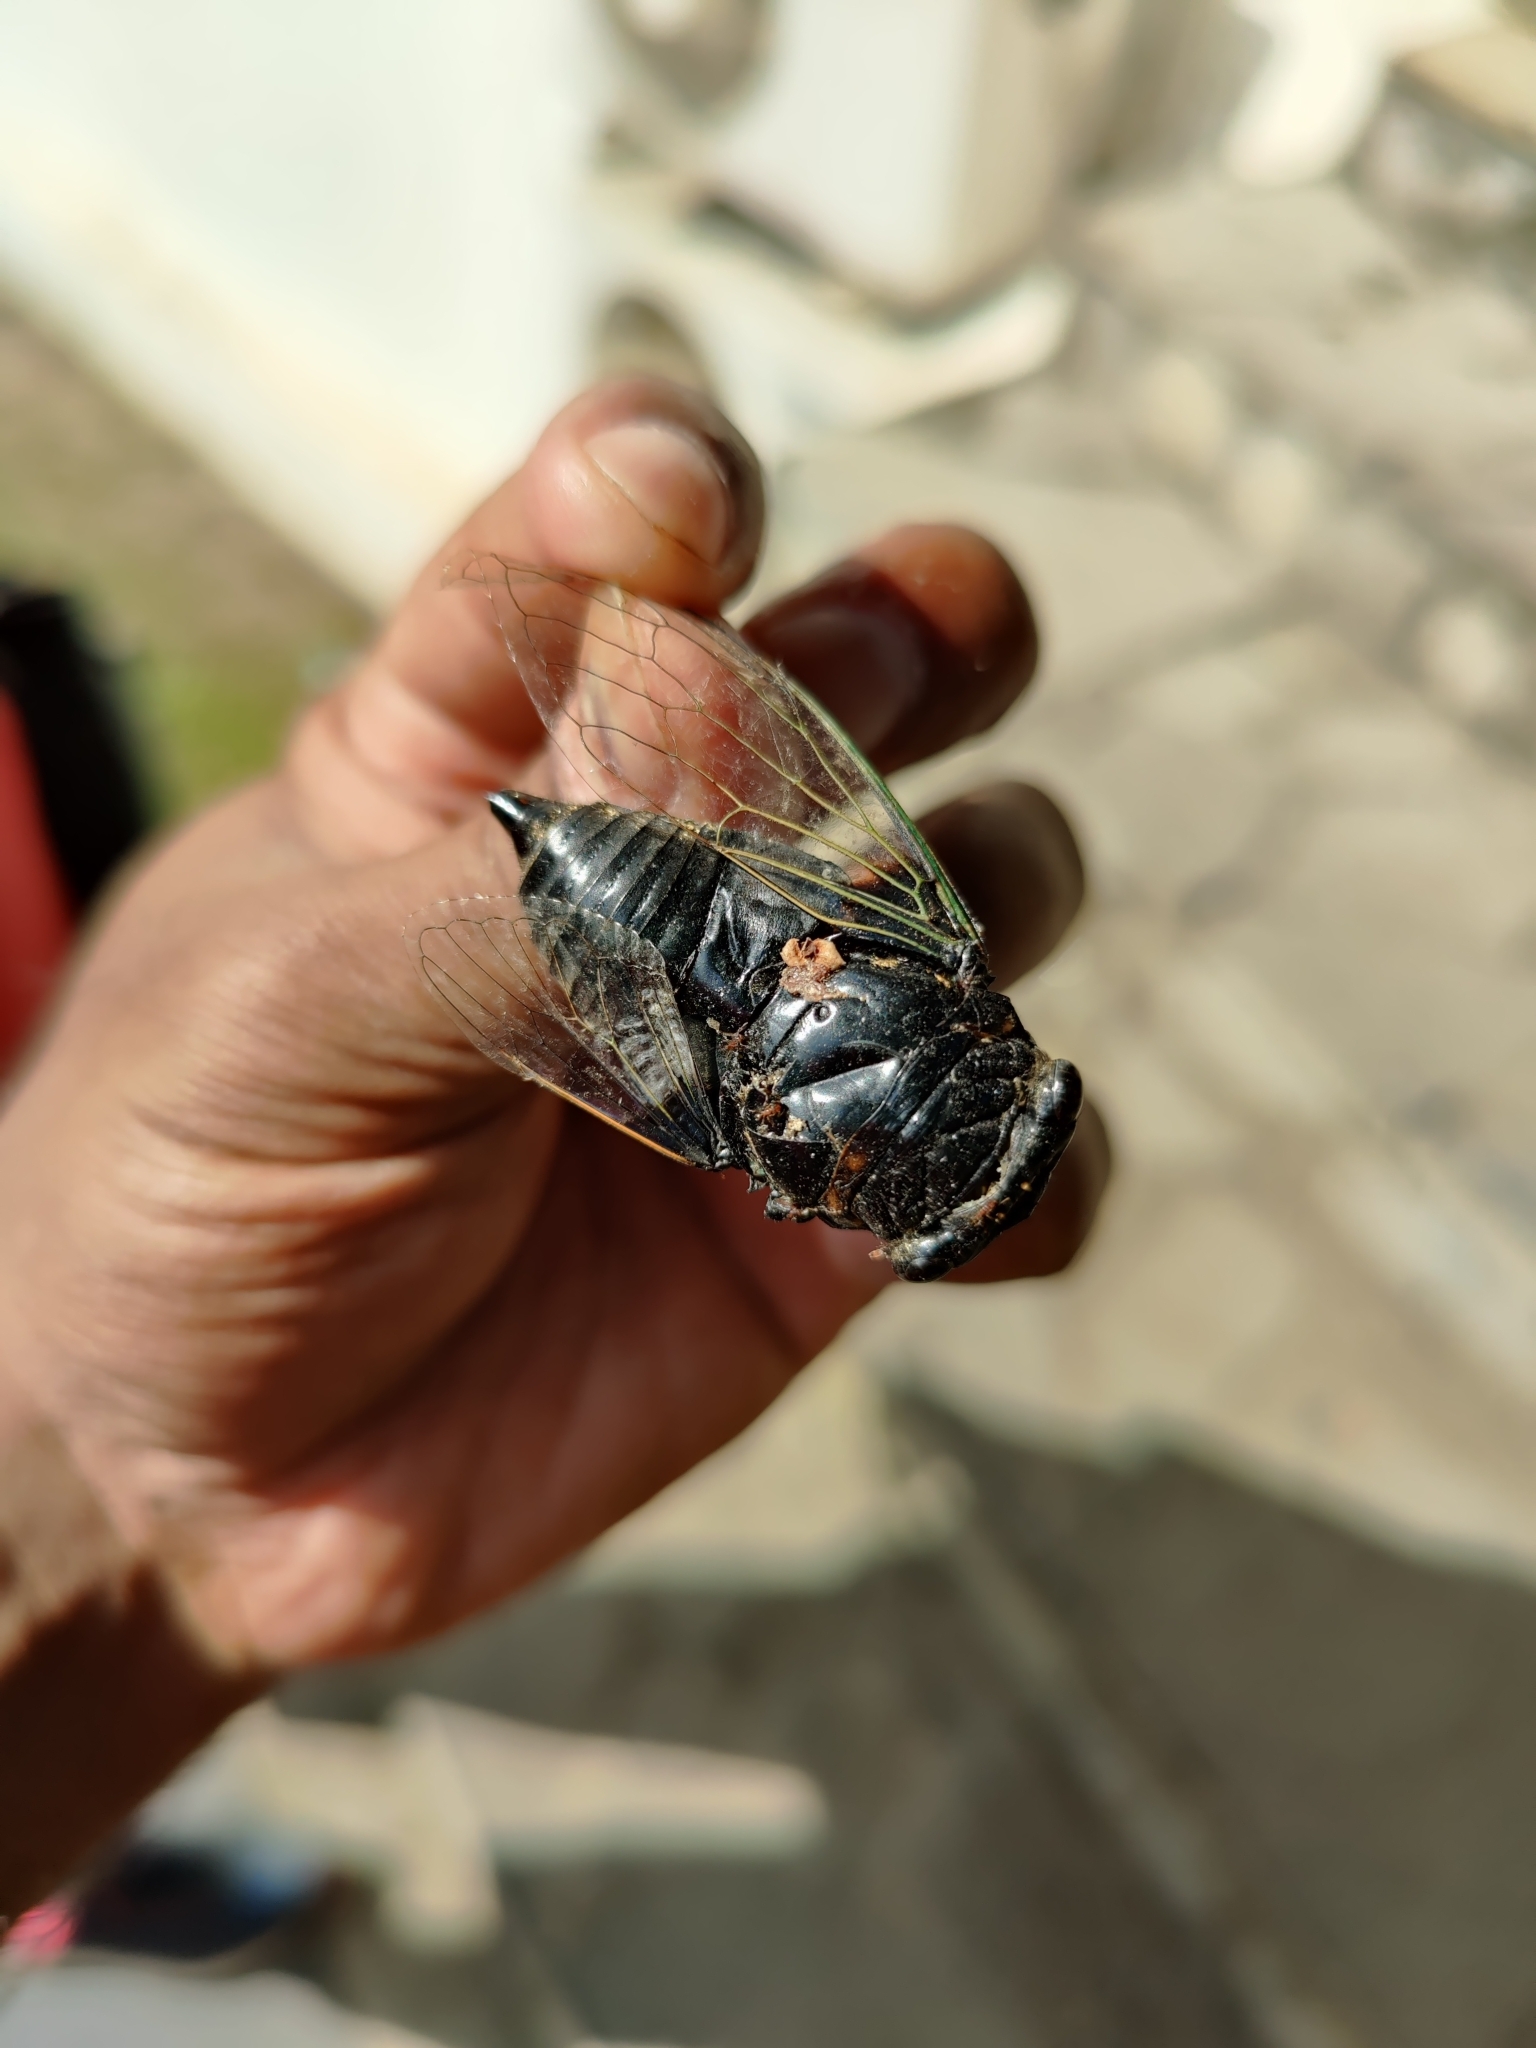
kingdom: Animalia
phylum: Arthropoda
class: Insecta
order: Hemiptera
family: Cicadidae
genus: Cryptotympana
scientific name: Cryptotympana intermedia
